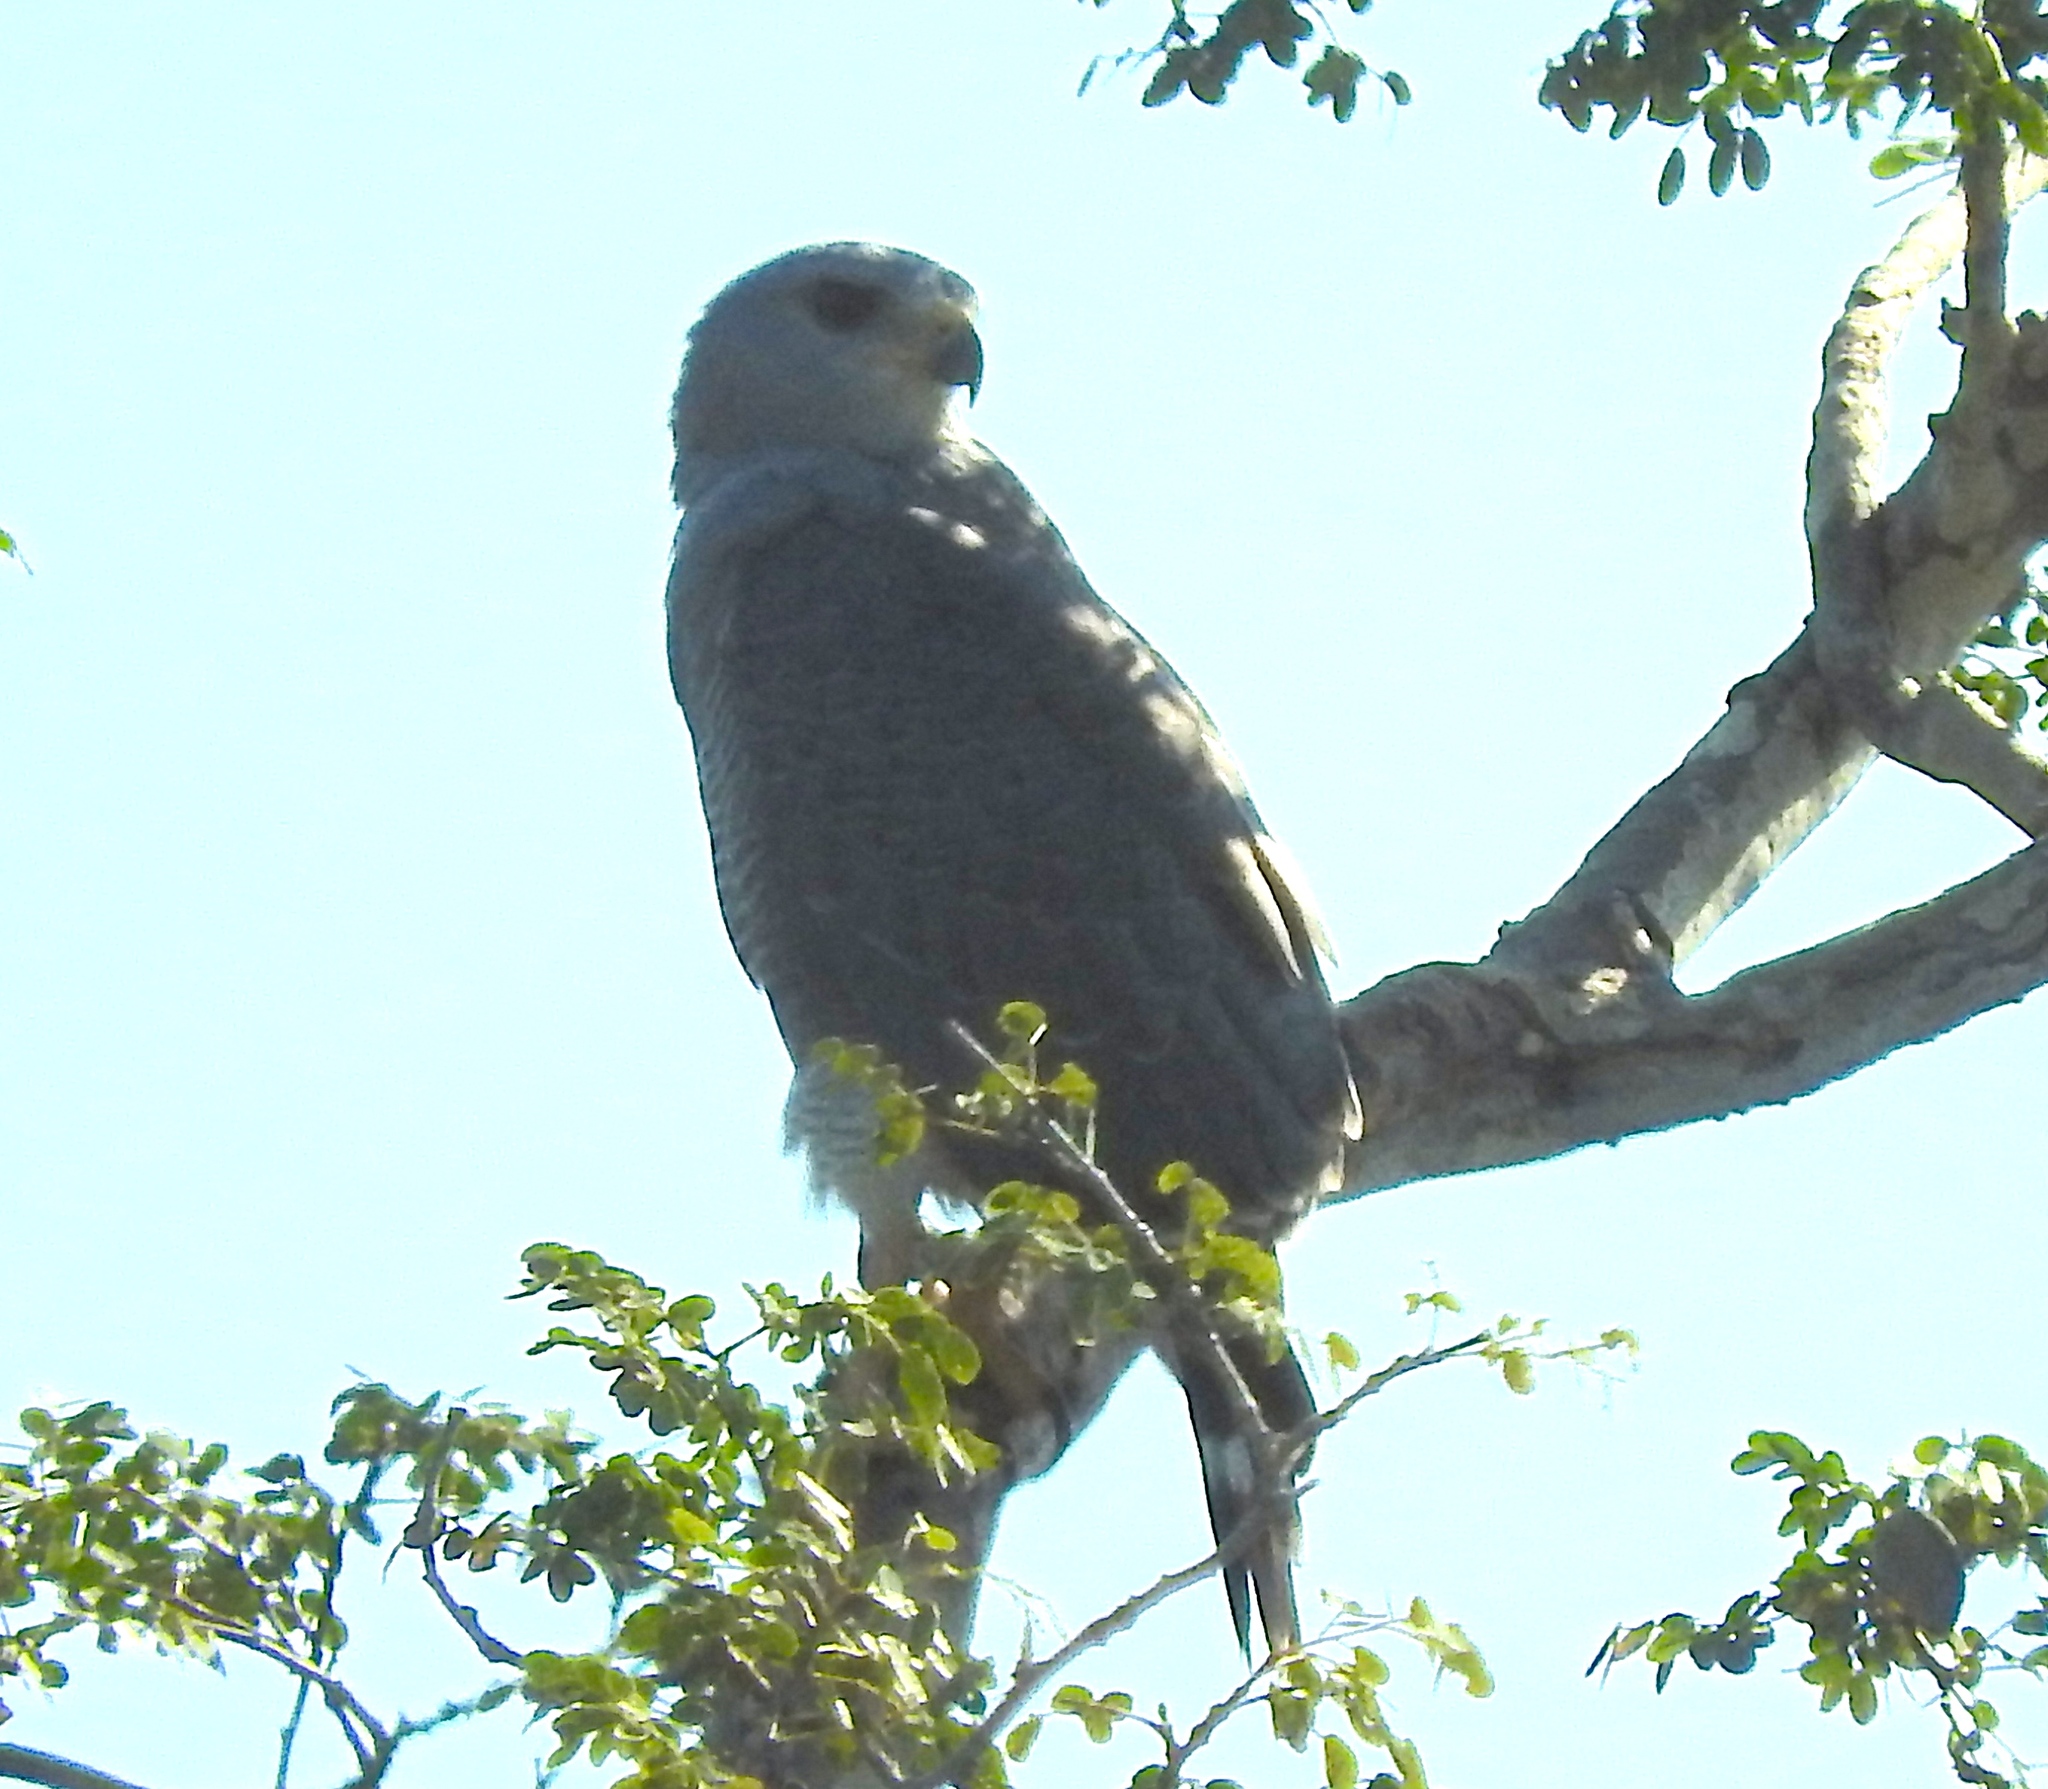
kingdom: Animalia
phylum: Chordata
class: Aves
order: Accipitriformes
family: Accipitridae
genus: Buteo
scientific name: Buteo nitidus
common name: Grey-lined hawk
